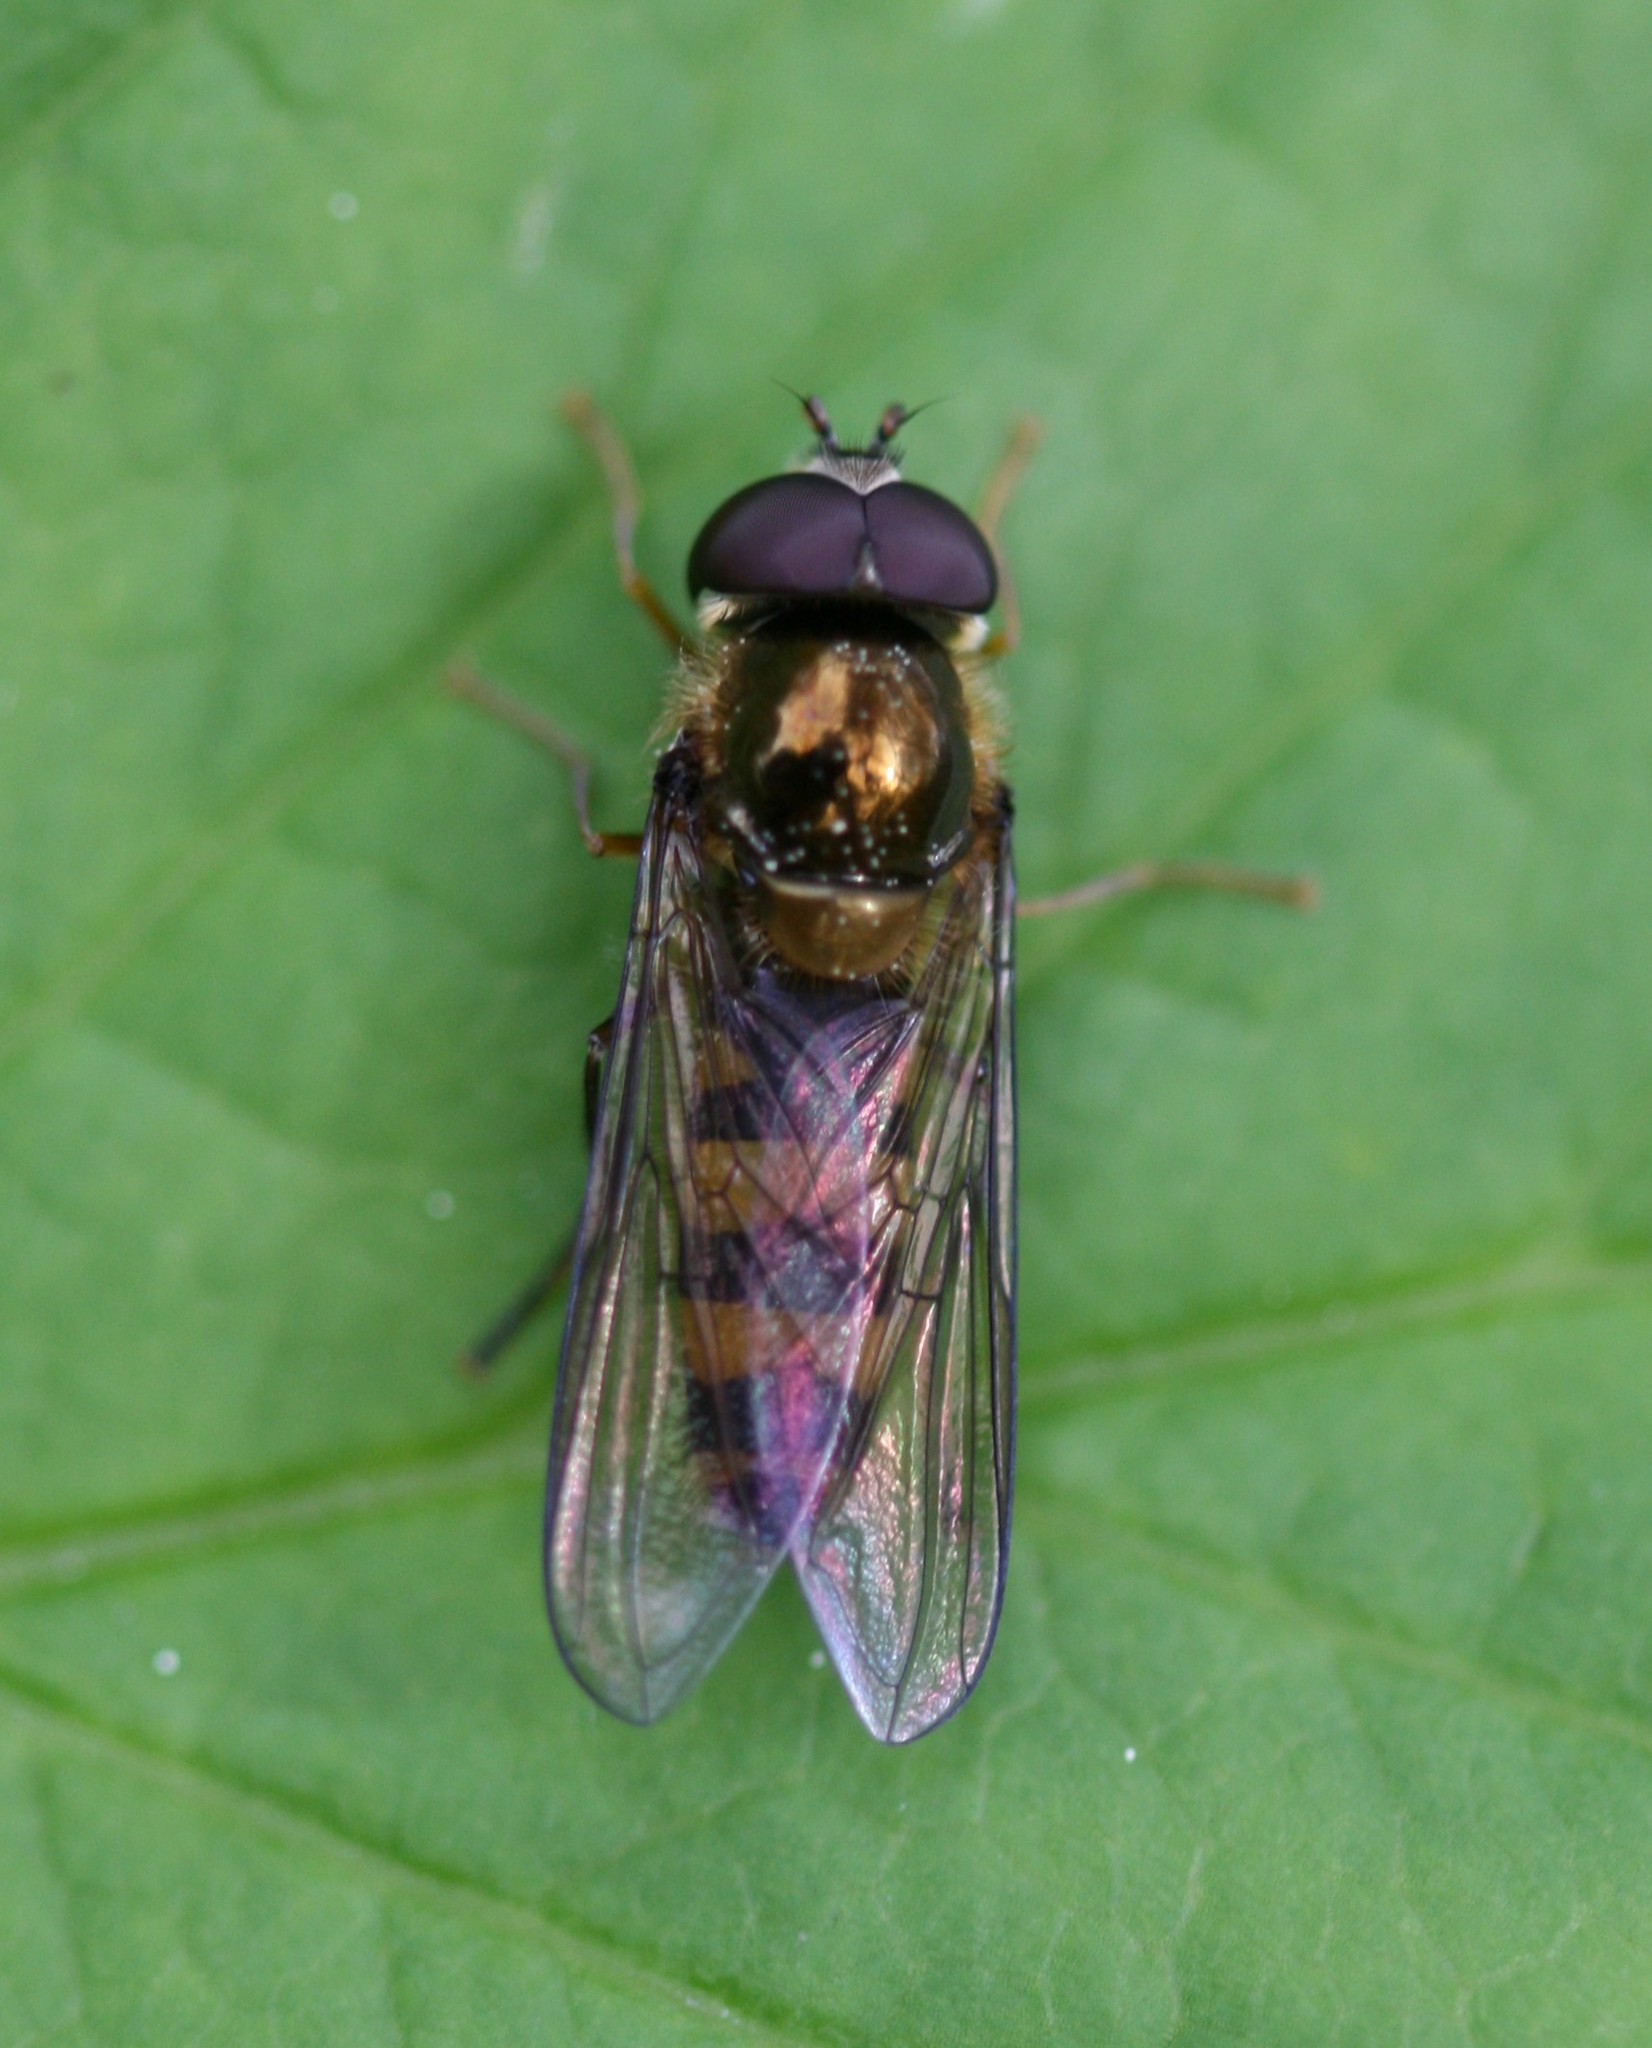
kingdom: Animalia
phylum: Arthropoda
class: Insecta
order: Diptera
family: Syrphidae
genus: Fagisyrphus
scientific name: Fagisyrphus cincta
